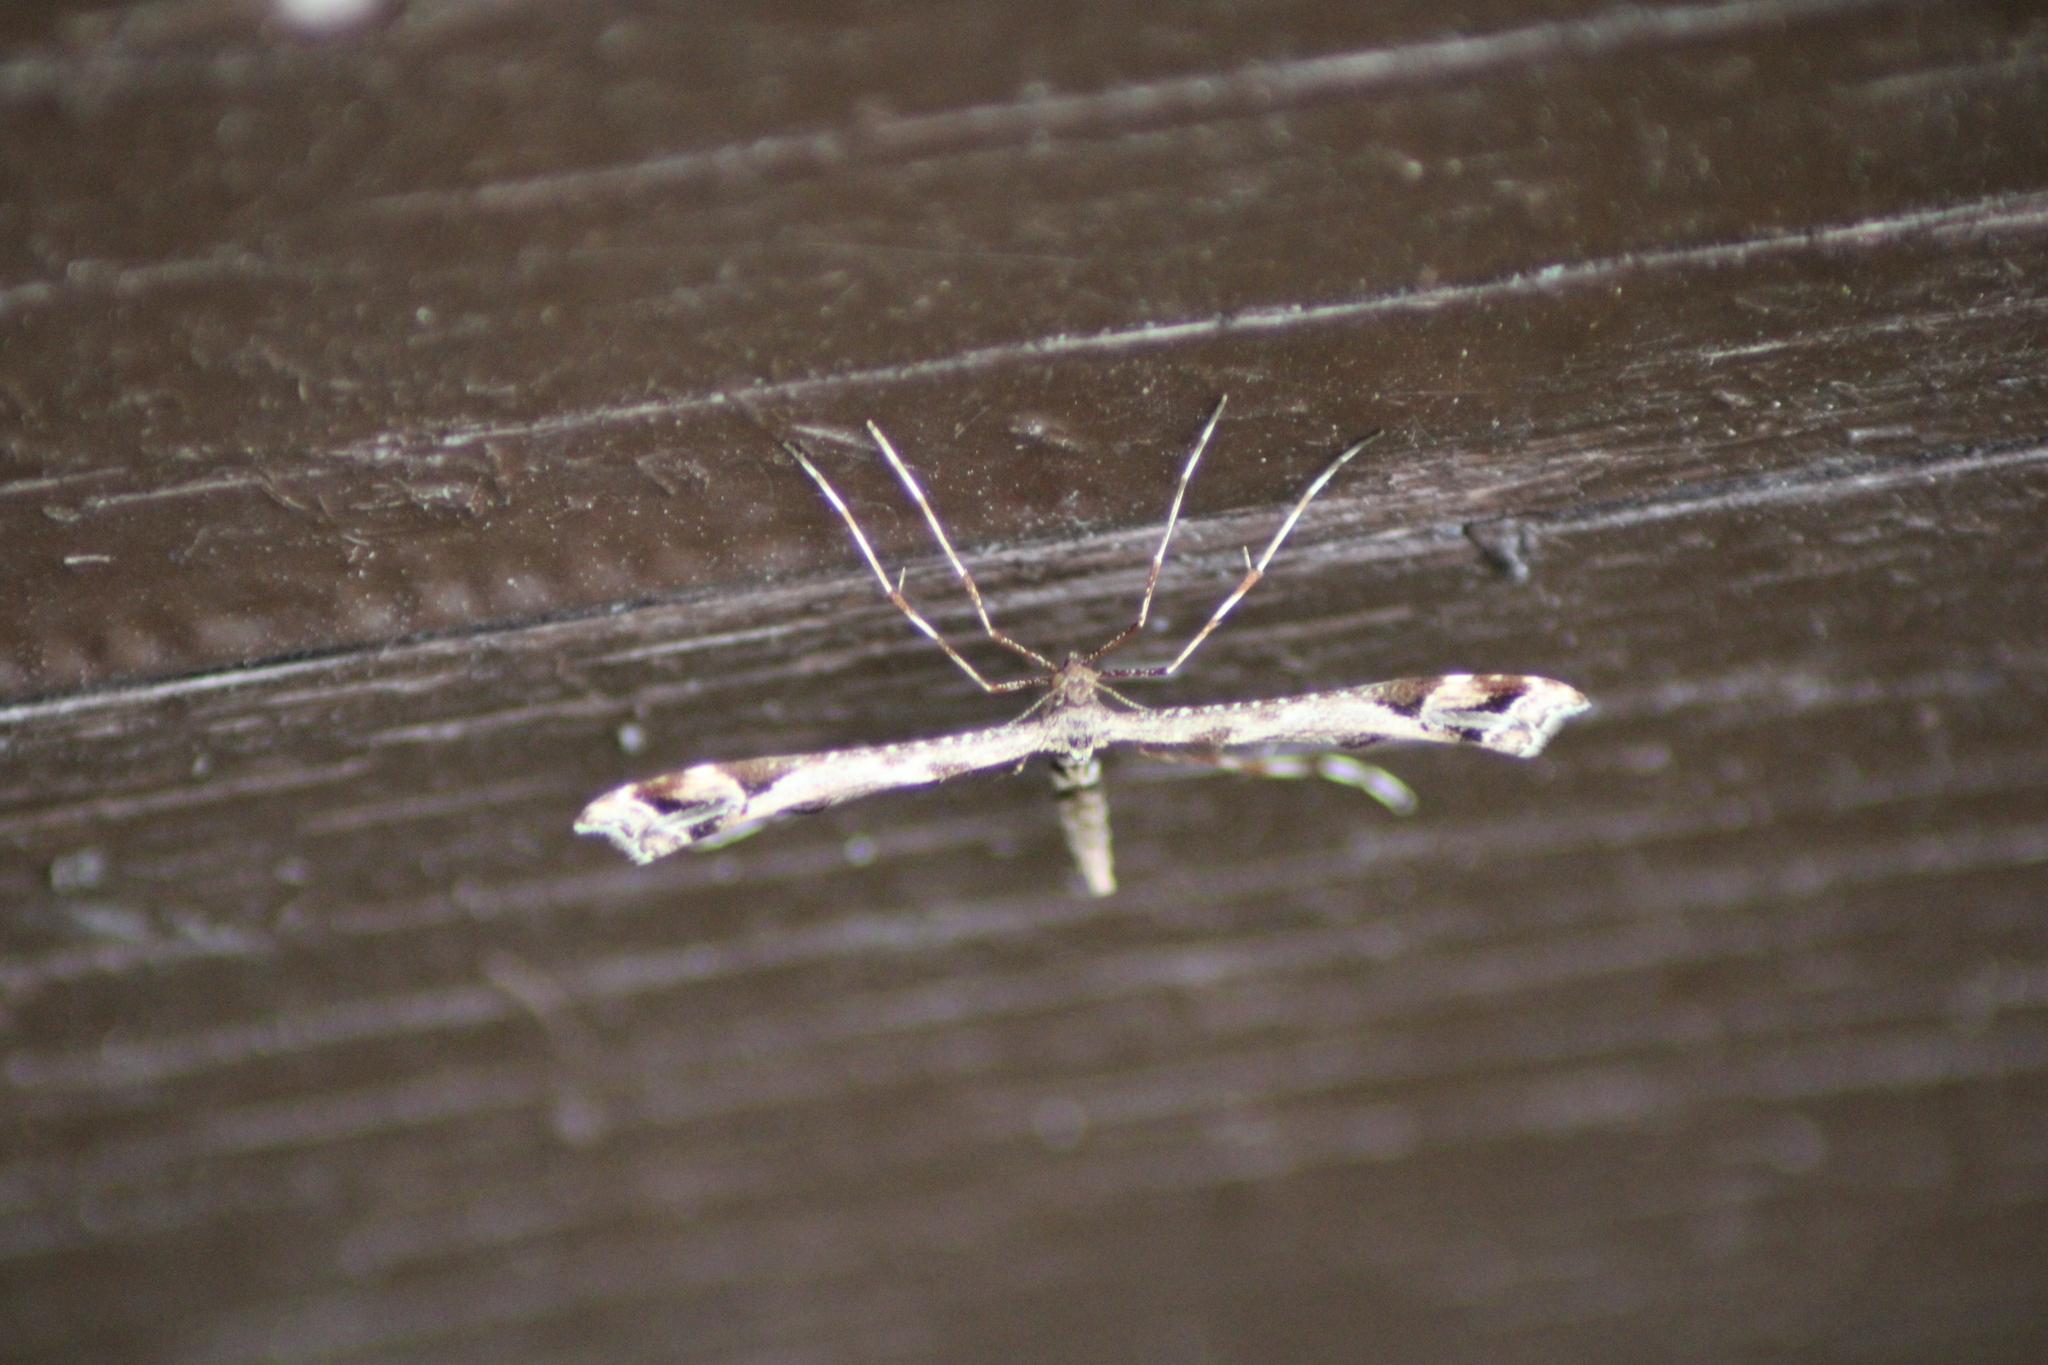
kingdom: Animalia
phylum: Arthropoda
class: Insecta
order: Lepidoptera
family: Pterophoridae
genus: Amblyptilia
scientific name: Amblyptilia acanthadactyla
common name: Beautiful plume
